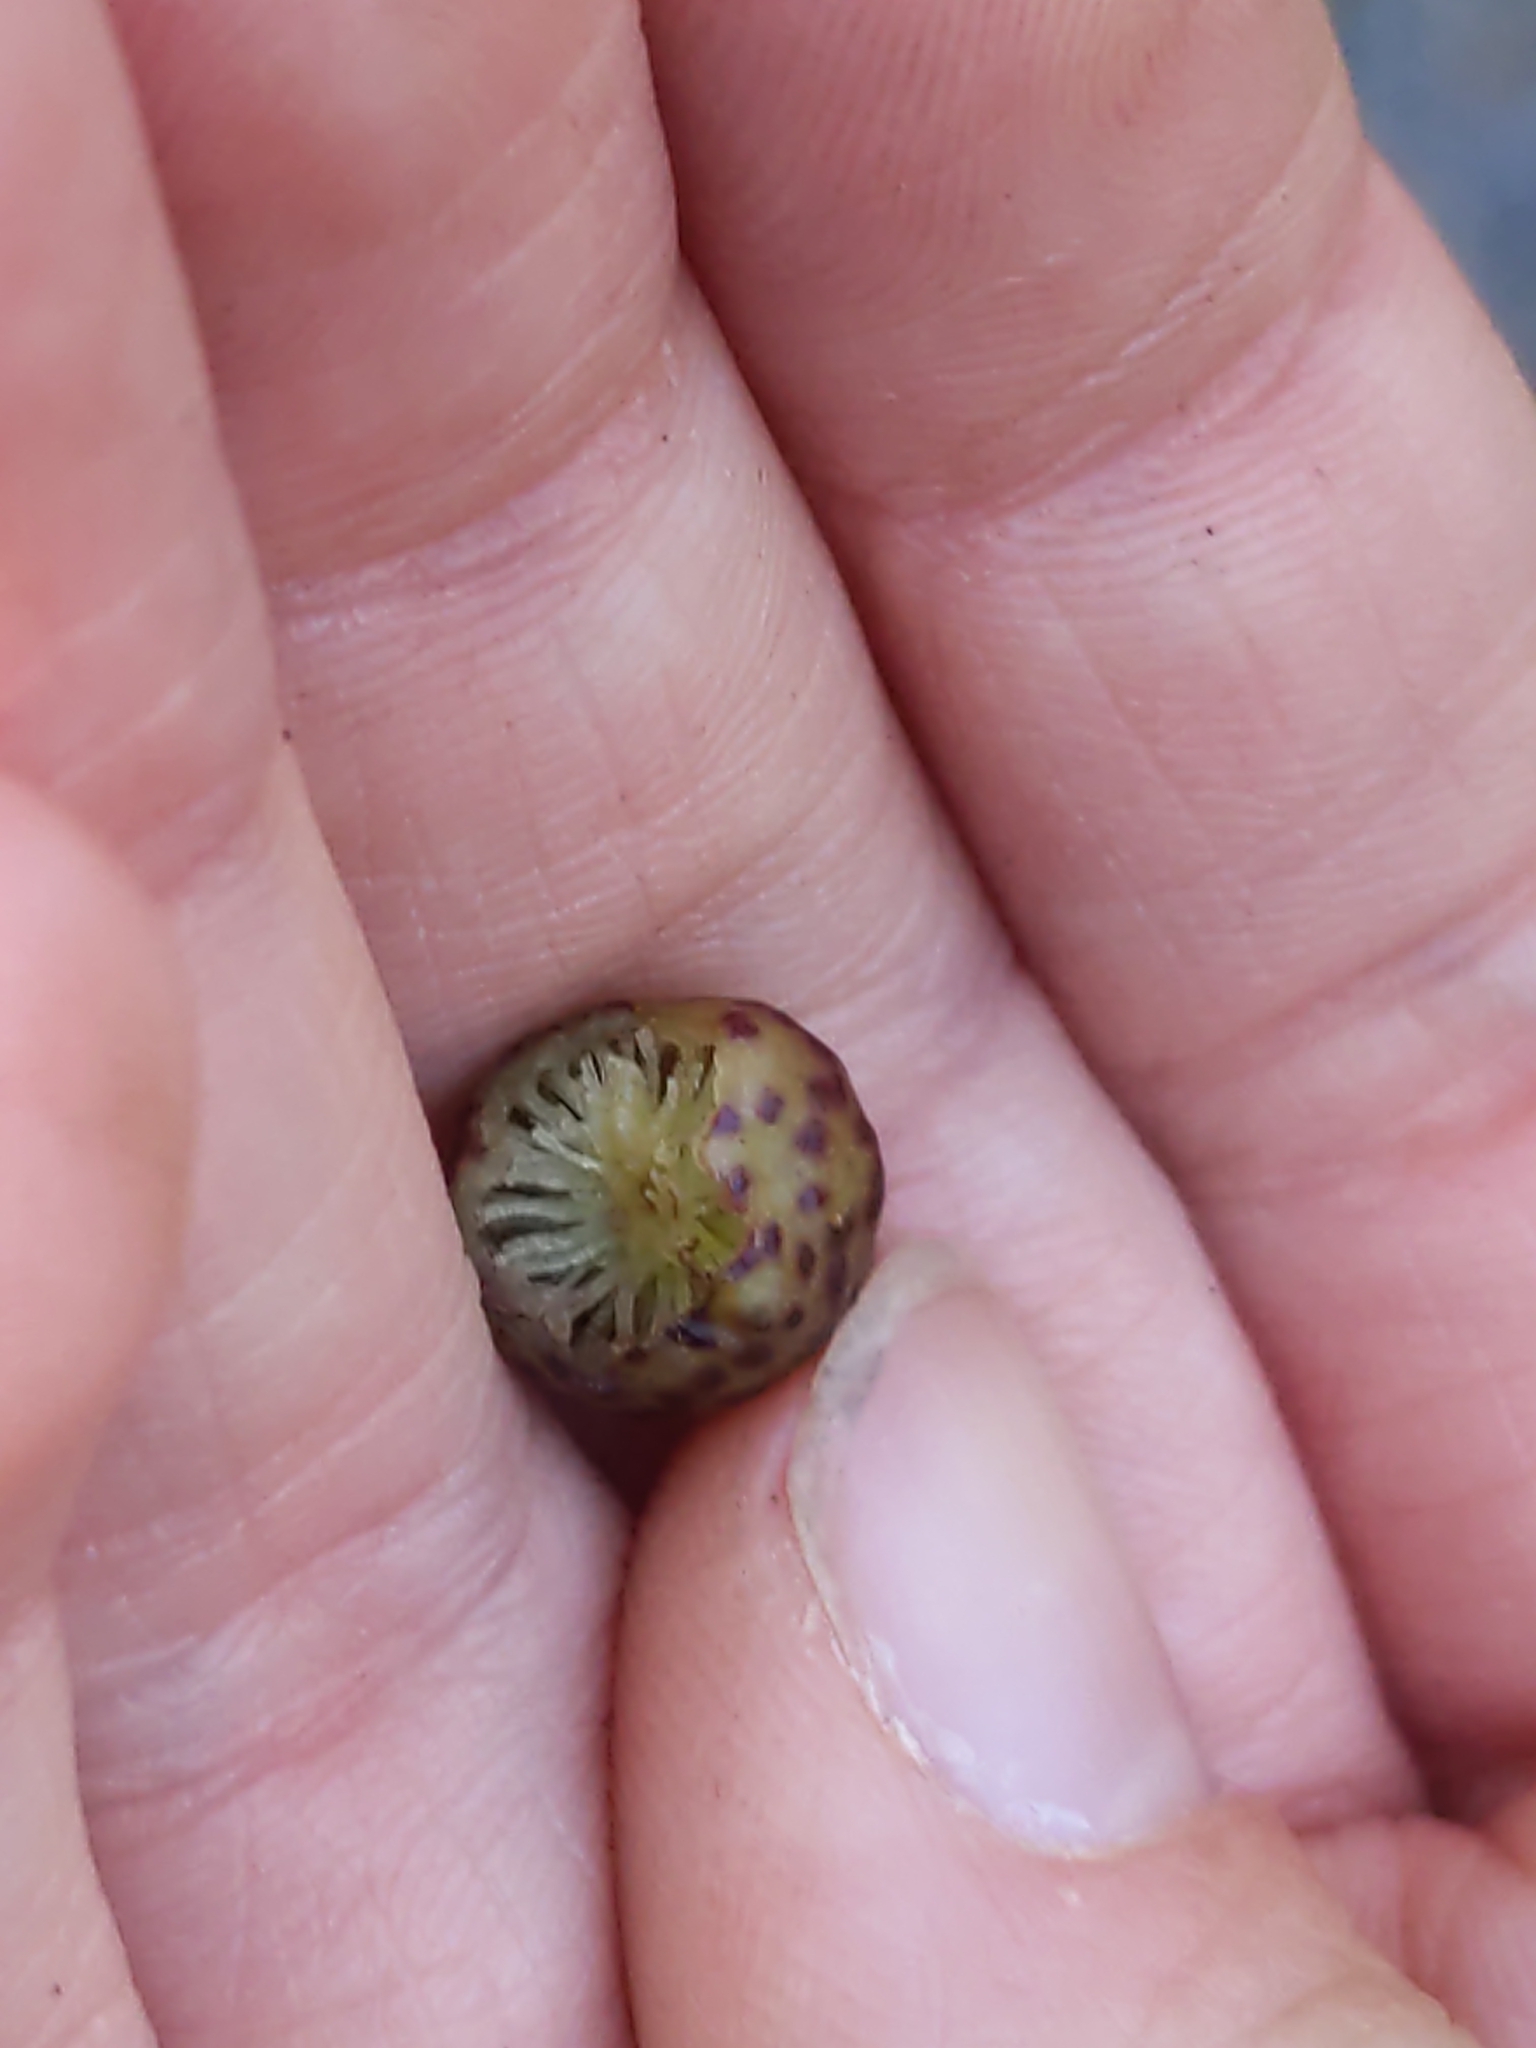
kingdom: Animalia
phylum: Arthropoda
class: Insecta
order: Hymenoptera
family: Cynipidae
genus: Amphibolips
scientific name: Amphibolips
